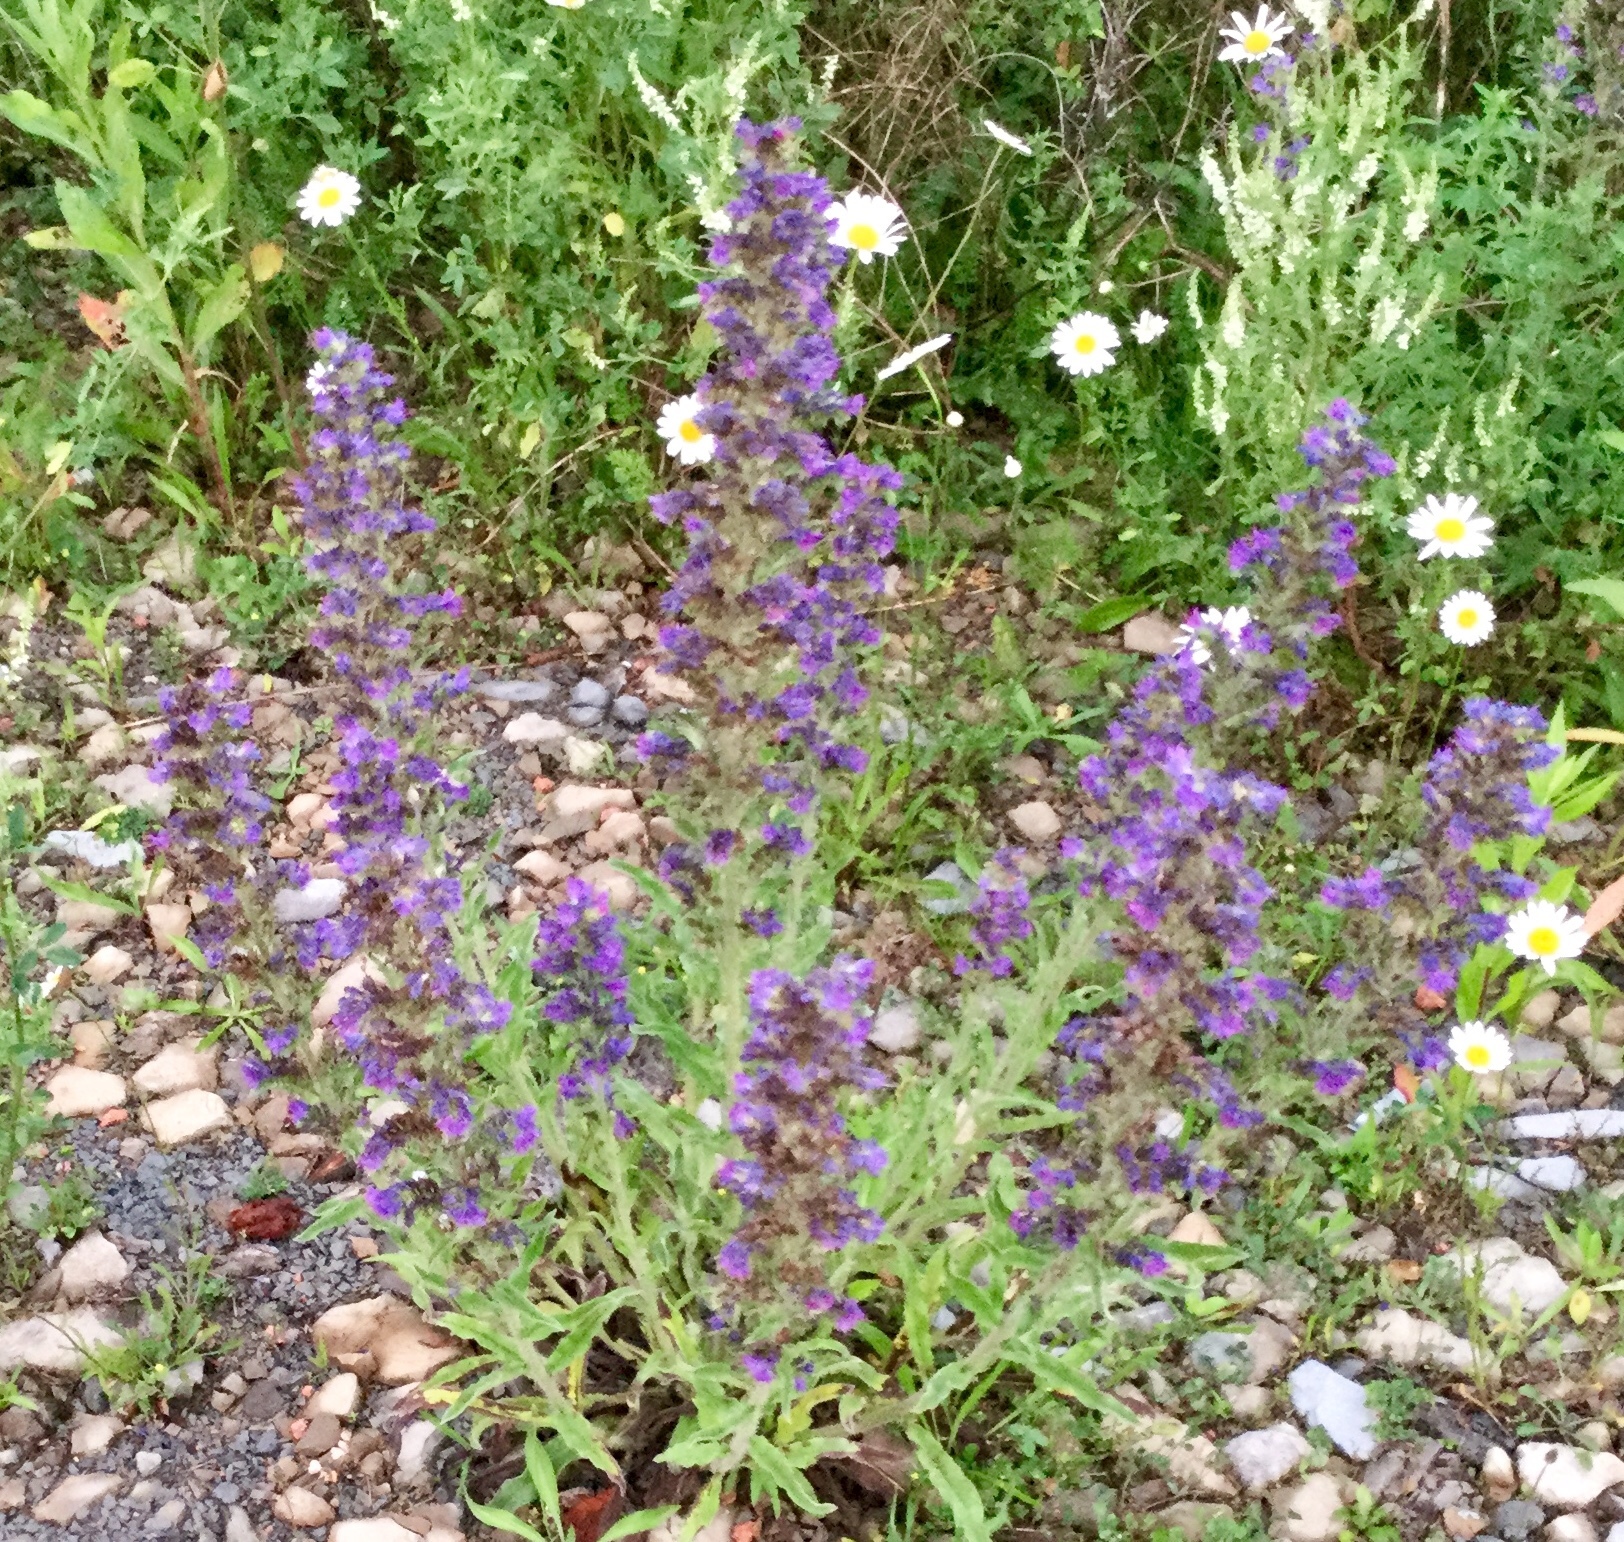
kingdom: Plantae
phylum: Tracheophyta
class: Magnoliopsida
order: Boraginales
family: Boraginaceae
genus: Echium
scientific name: Echium vulgare
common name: Common viper's bugloss
